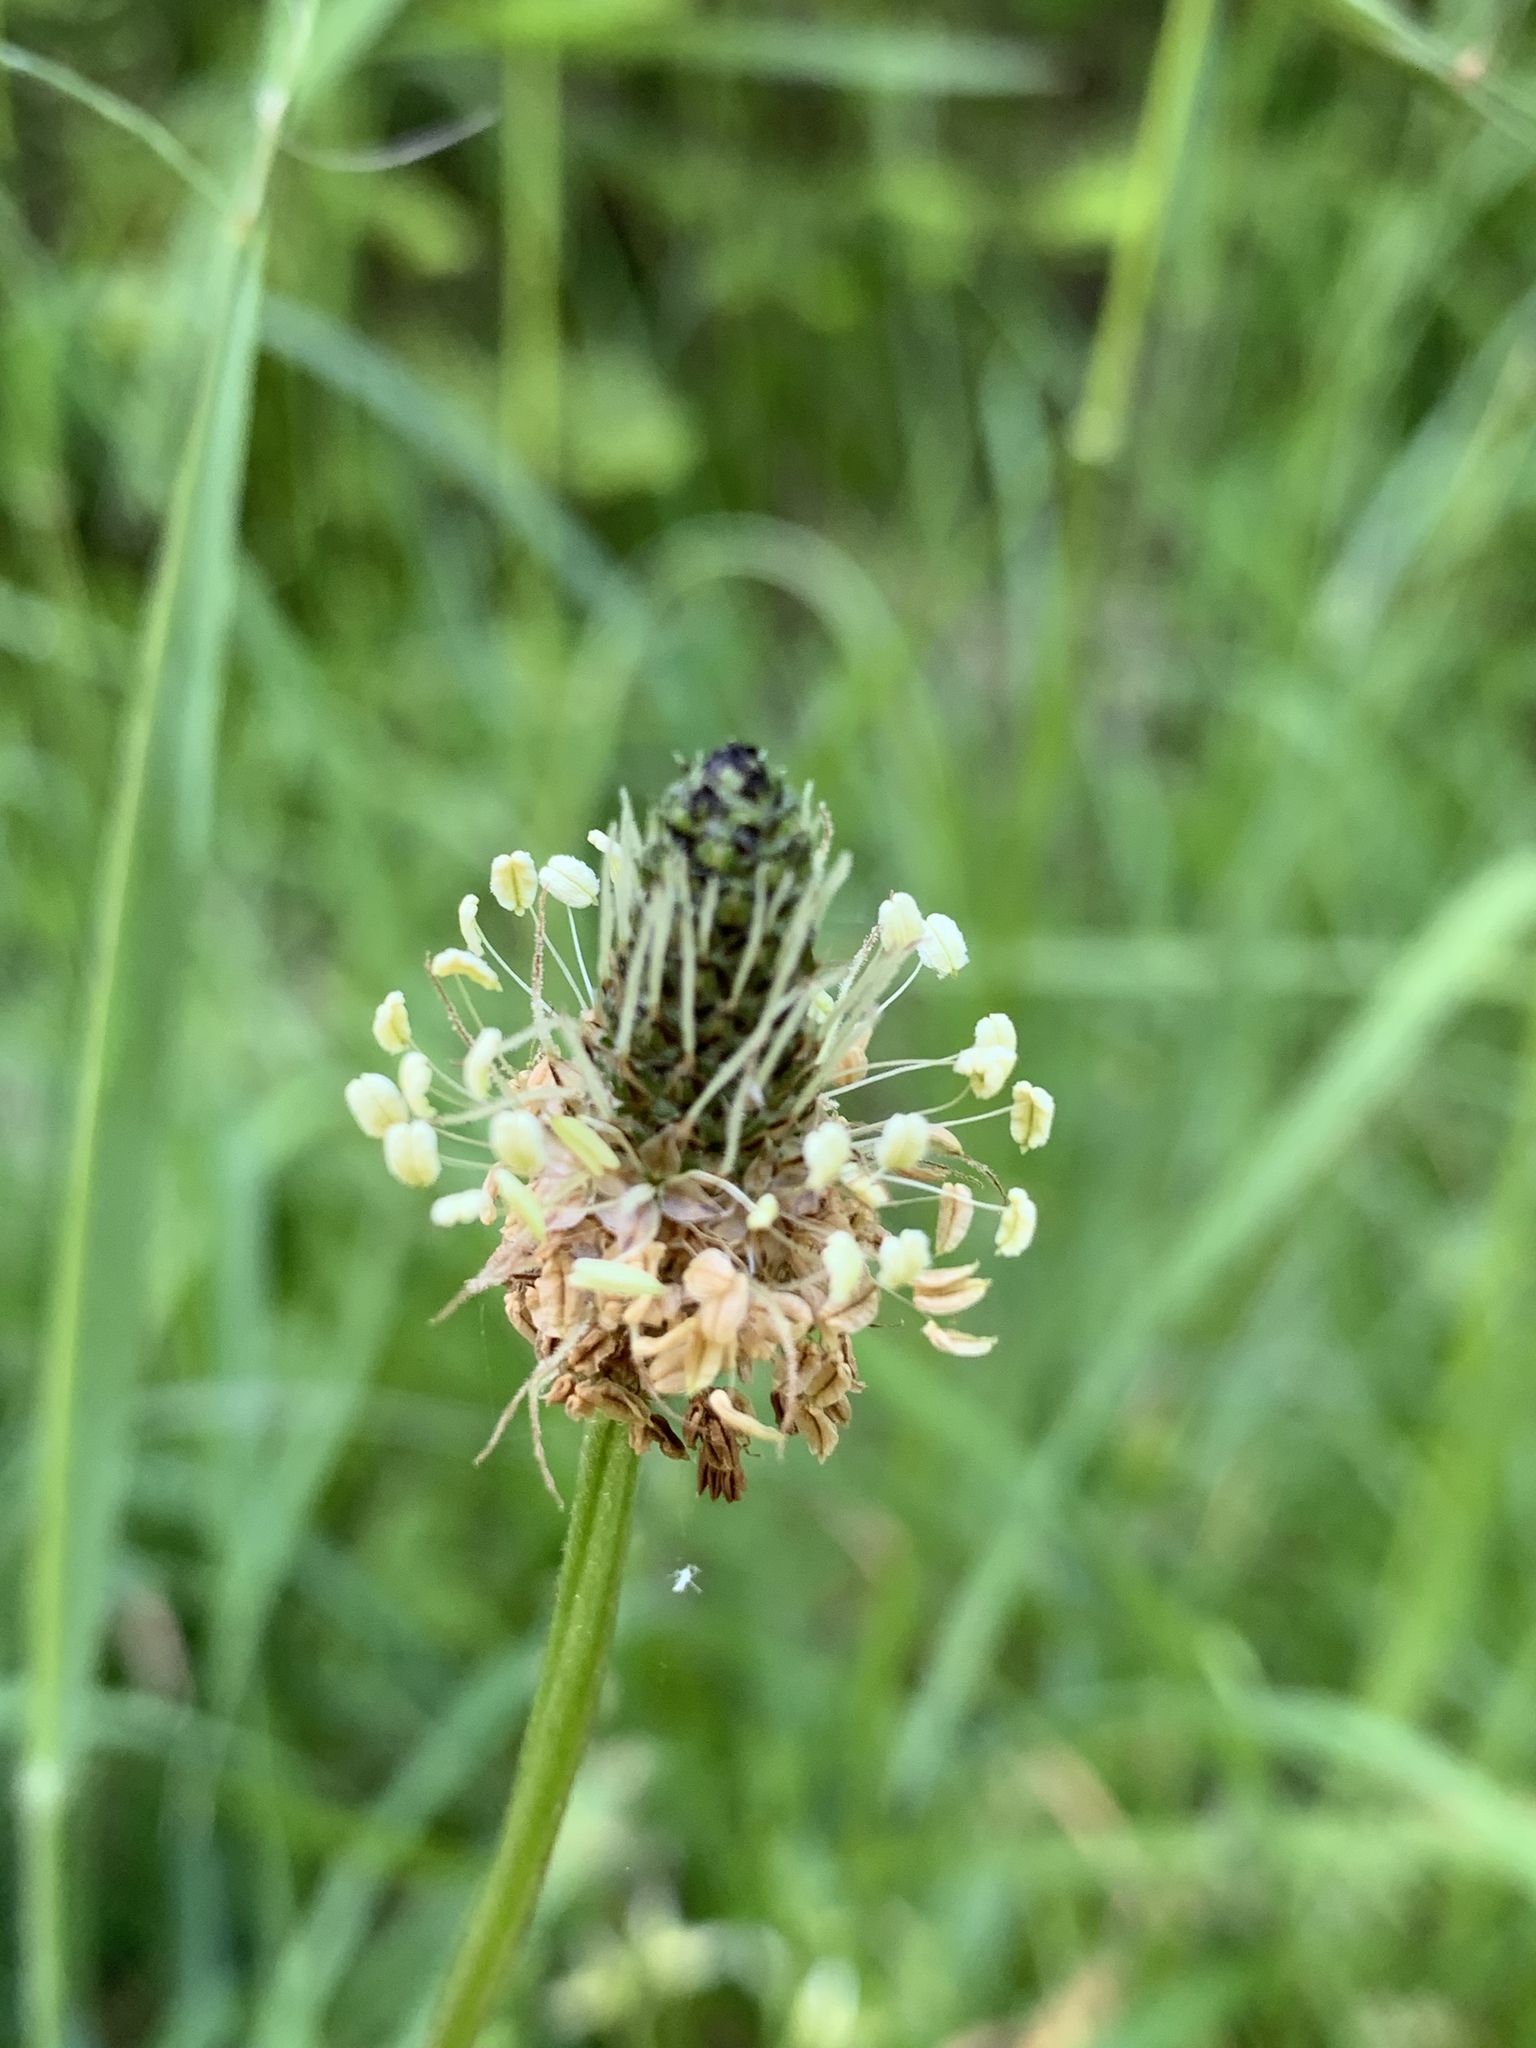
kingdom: Plantae
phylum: Tracheophyta
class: Magnoliopsida
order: Lamiales
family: Plantaginaceae
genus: Plantago
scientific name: Plantago lanceolata
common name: Ribwort plantain
